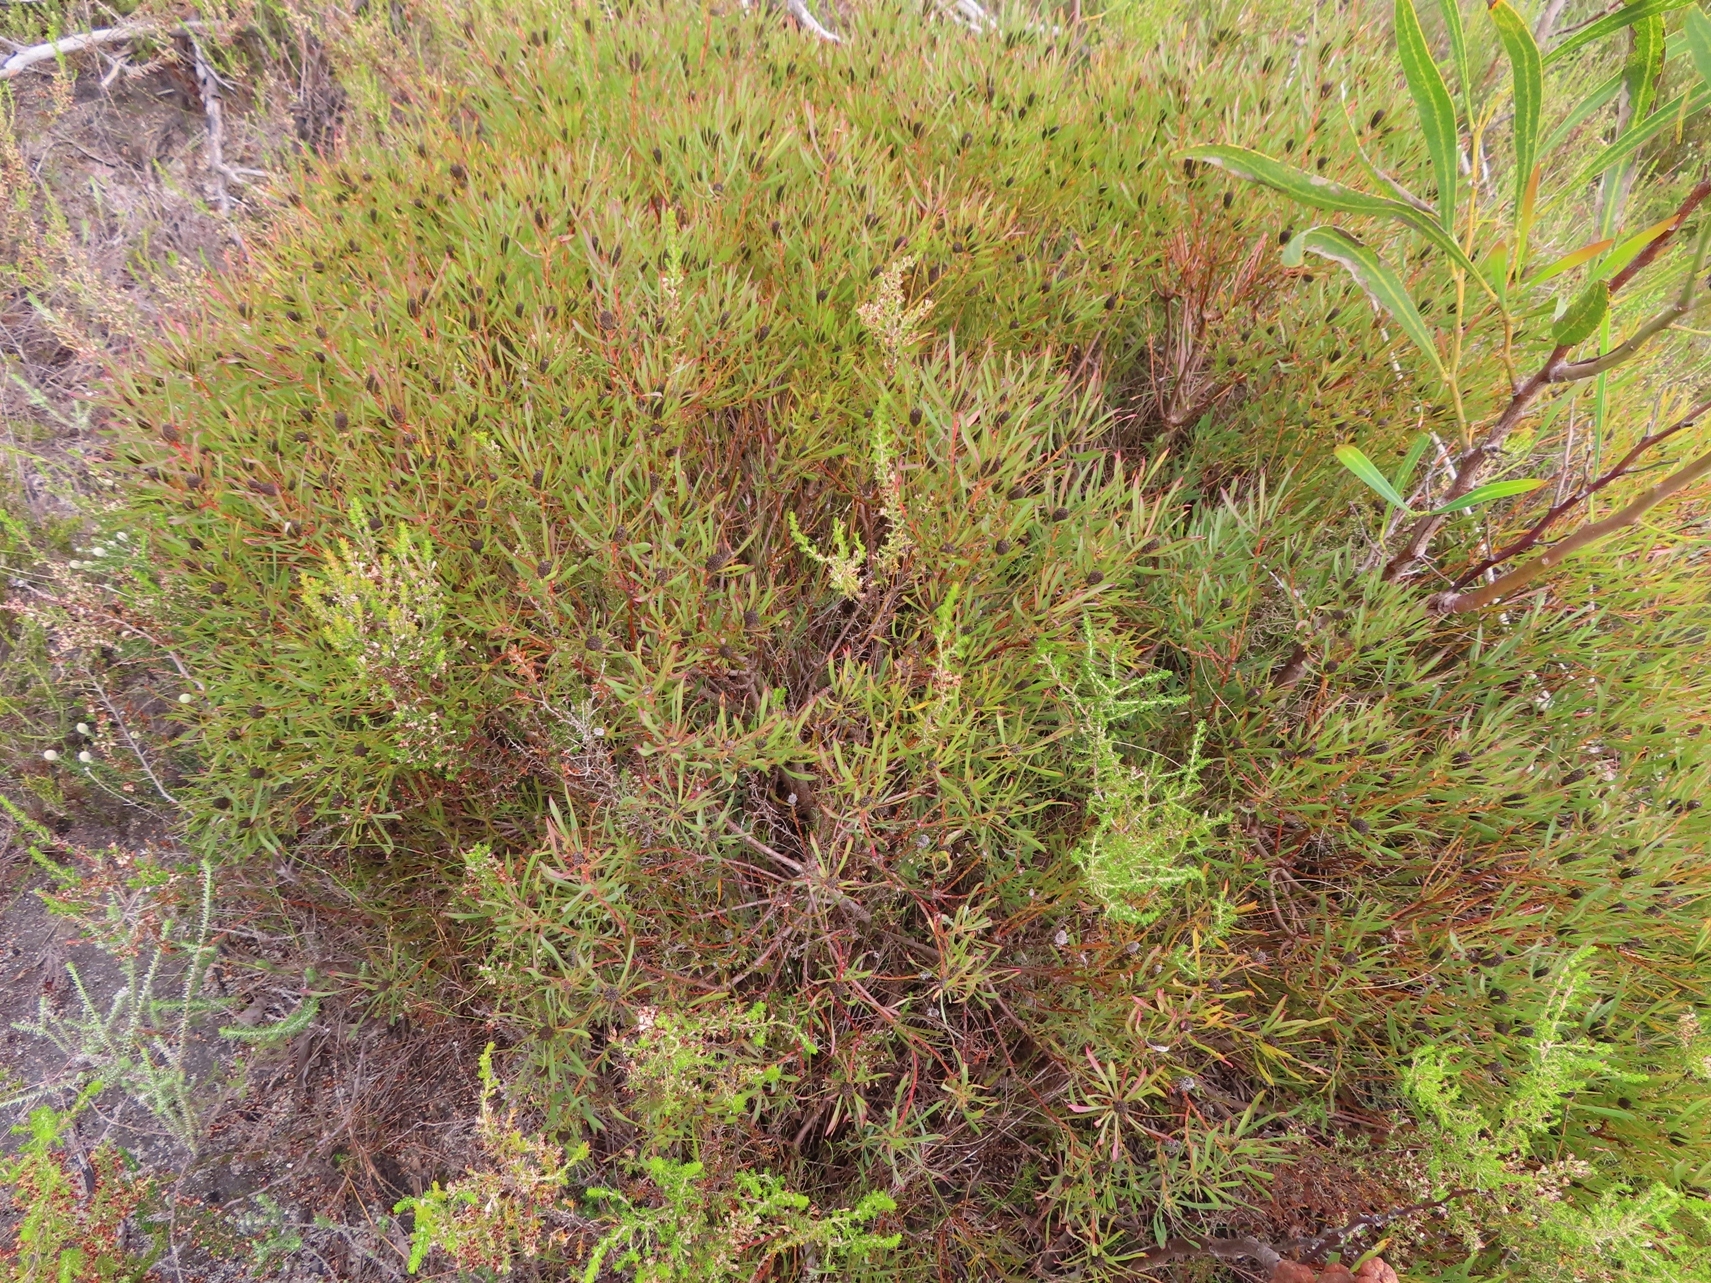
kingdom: Plantae
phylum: Tracheophyta
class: Magnoliopsida
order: Proteales
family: Proteaceae
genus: Leucadendron
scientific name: Leucadendron salignum
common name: Common sunshine conebush
